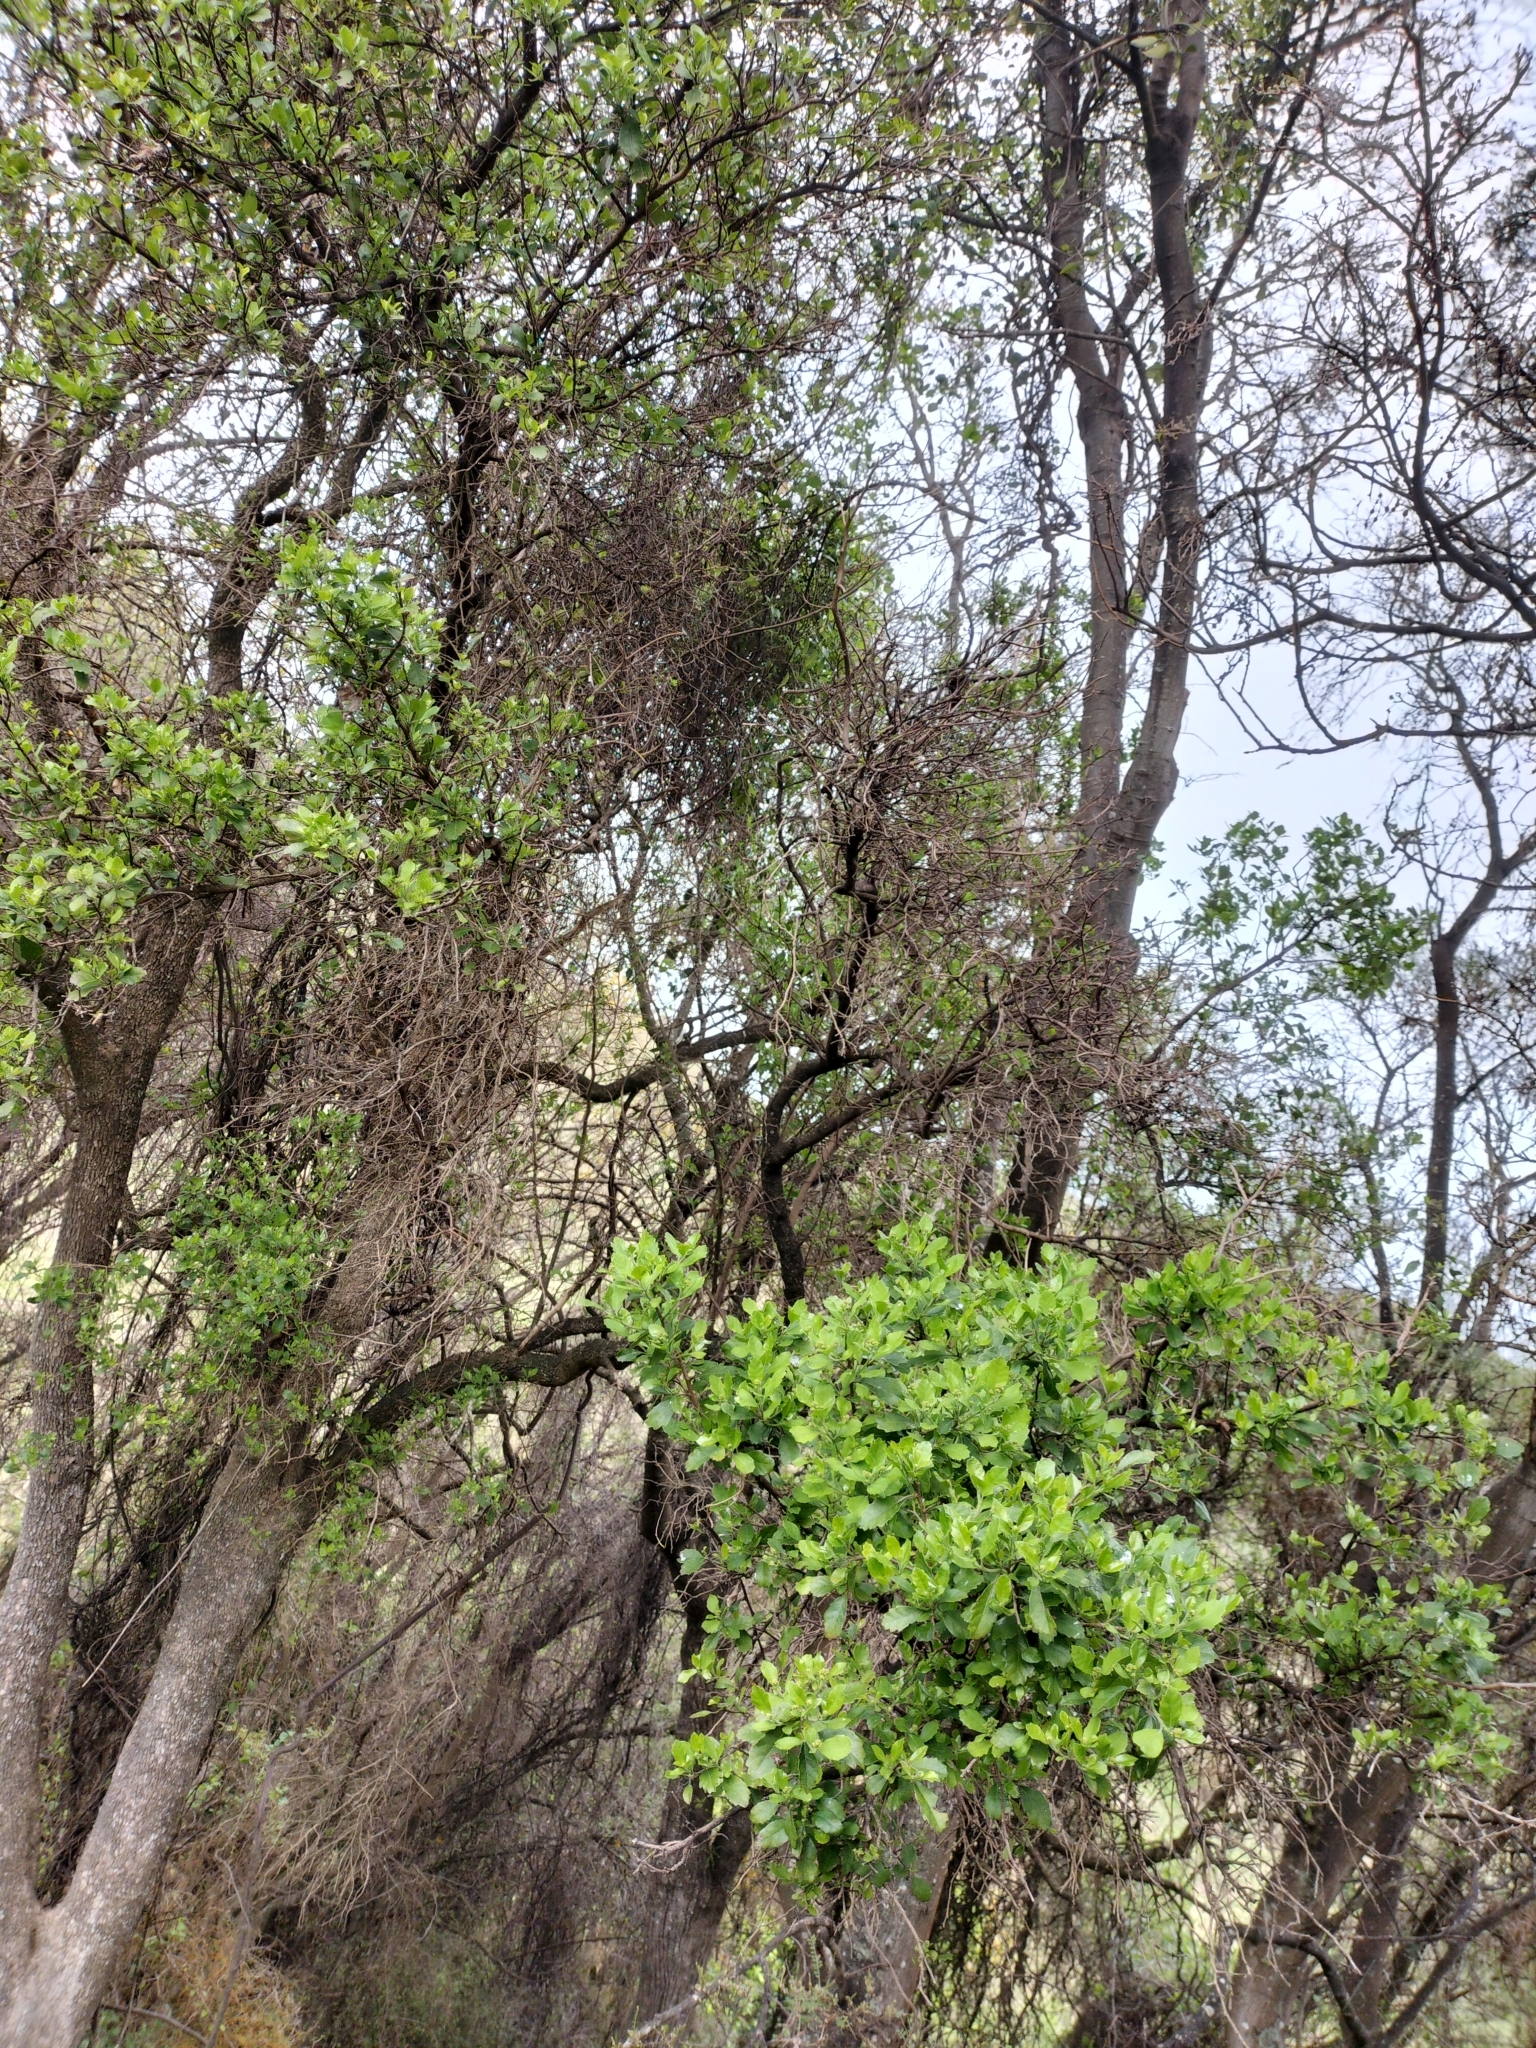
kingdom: Plantae
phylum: Tracheophyta
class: Magnoliopsida
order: Apiales
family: Pennantiaceae
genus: Pennantia
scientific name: Pennantia corymbosa
